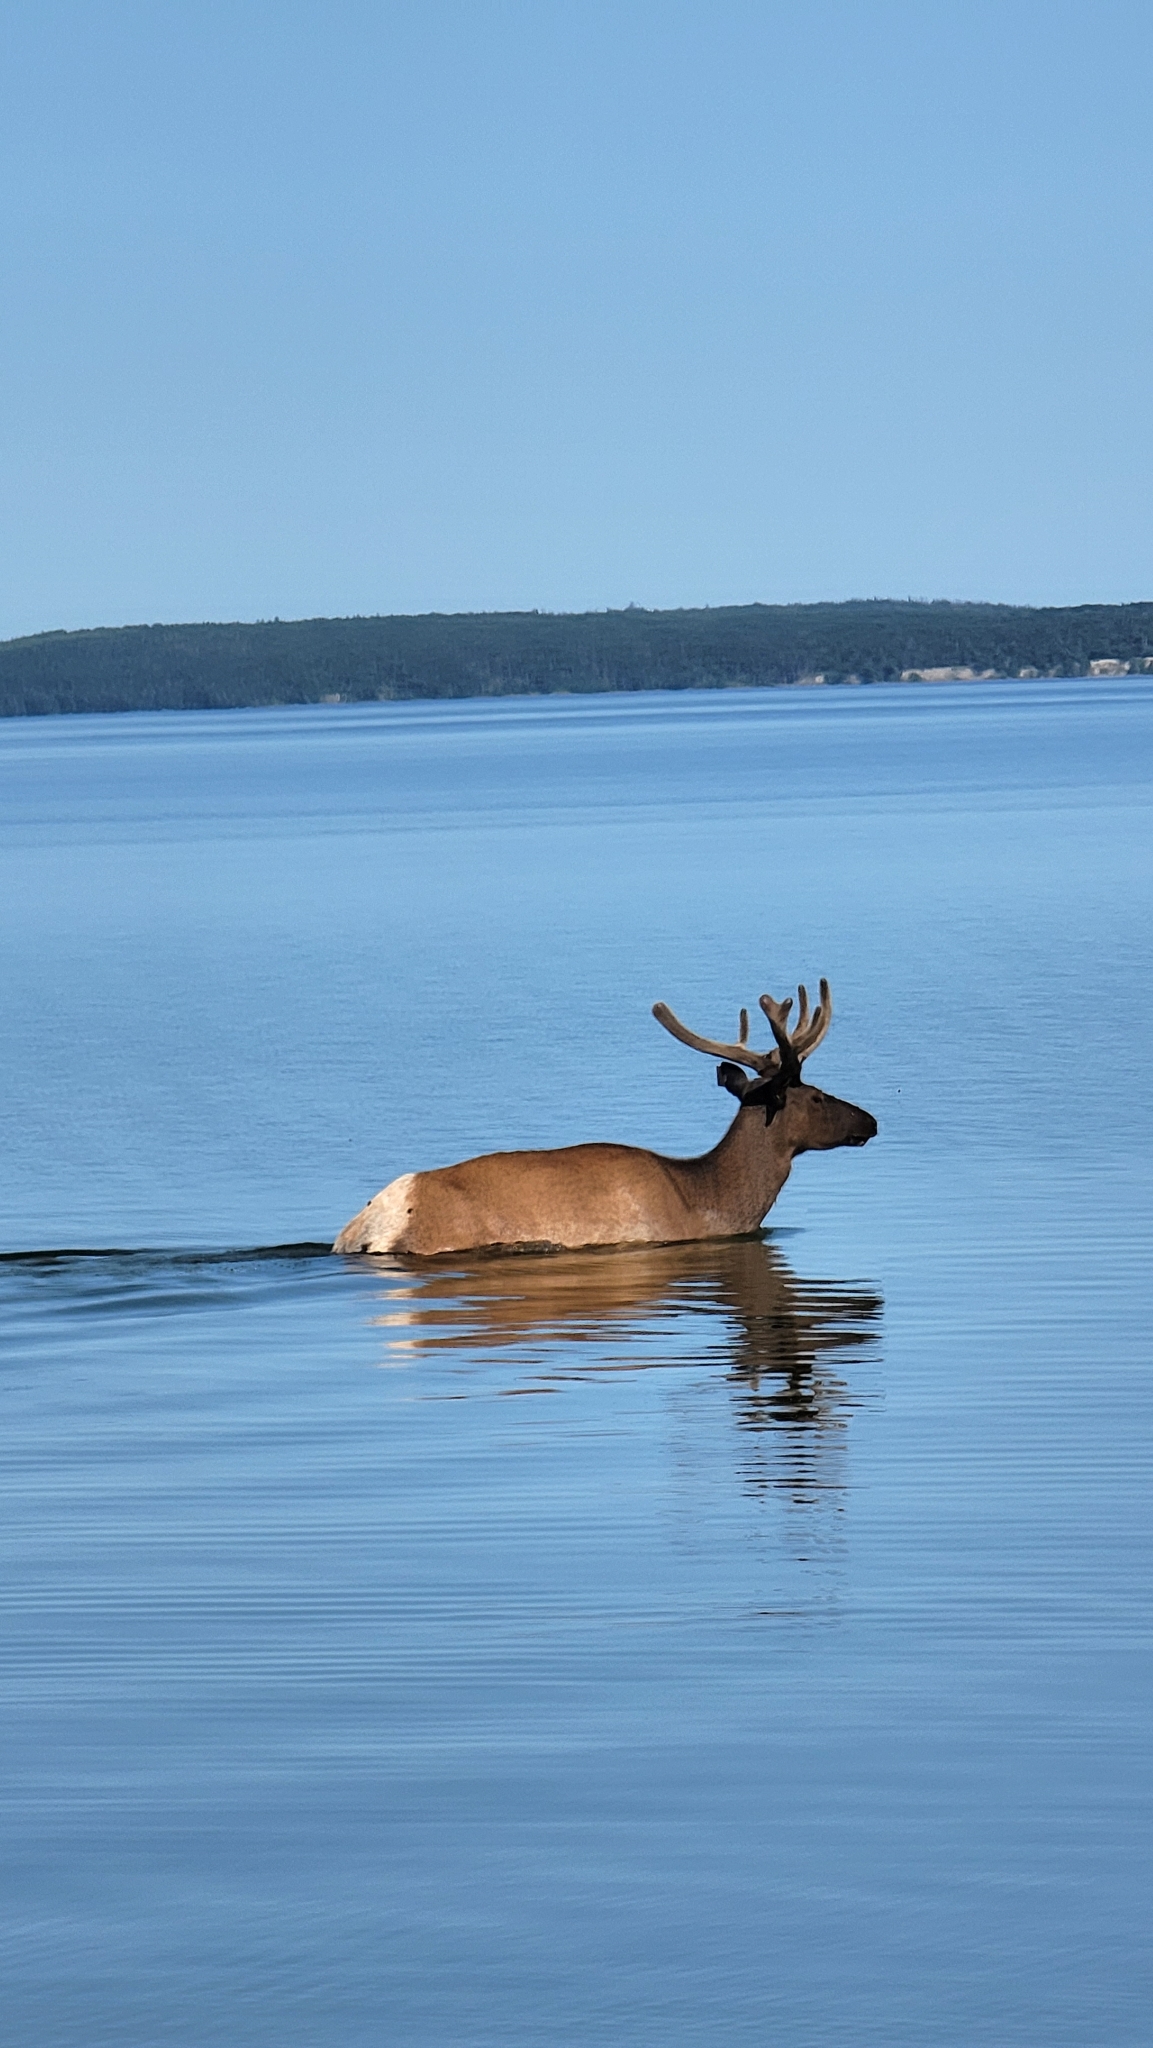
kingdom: Animalia
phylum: Chordata
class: Mammalia
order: Artiodactyla
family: Cervidae
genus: Cervus
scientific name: Cervus elaphus
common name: Red deer
